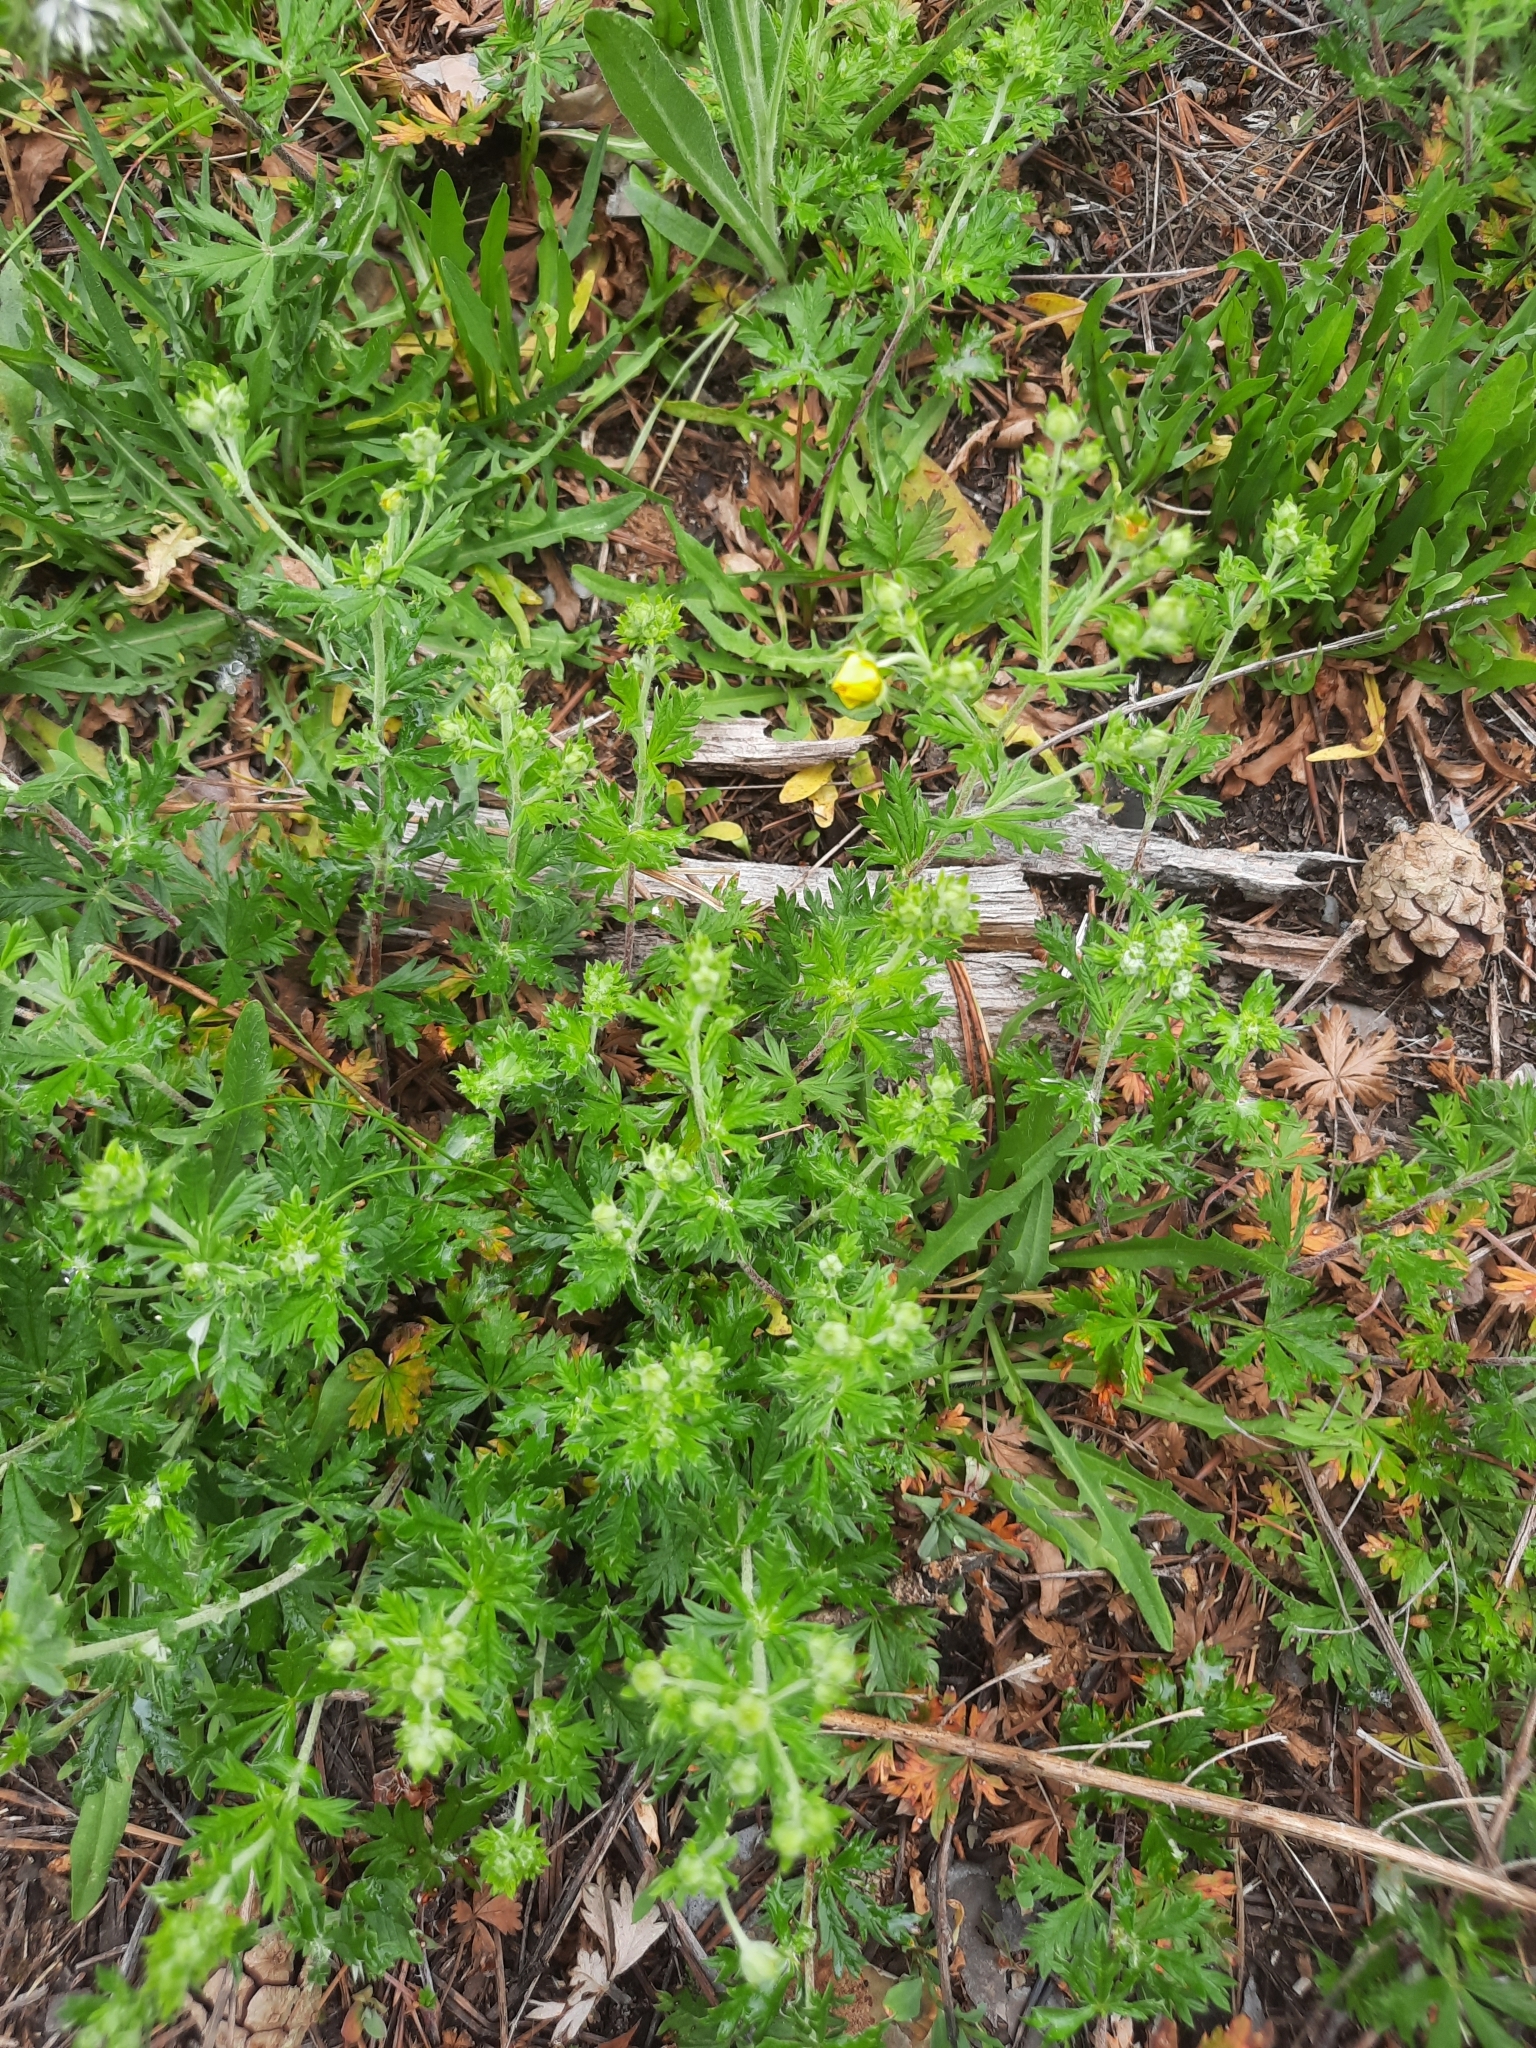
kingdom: Plantae
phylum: Tracheophyta
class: Magnoliopsida
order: Rosales
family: Rosaceae
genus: Potentilla
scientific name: Potentilla argentea
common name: Hoary cinquefoil
